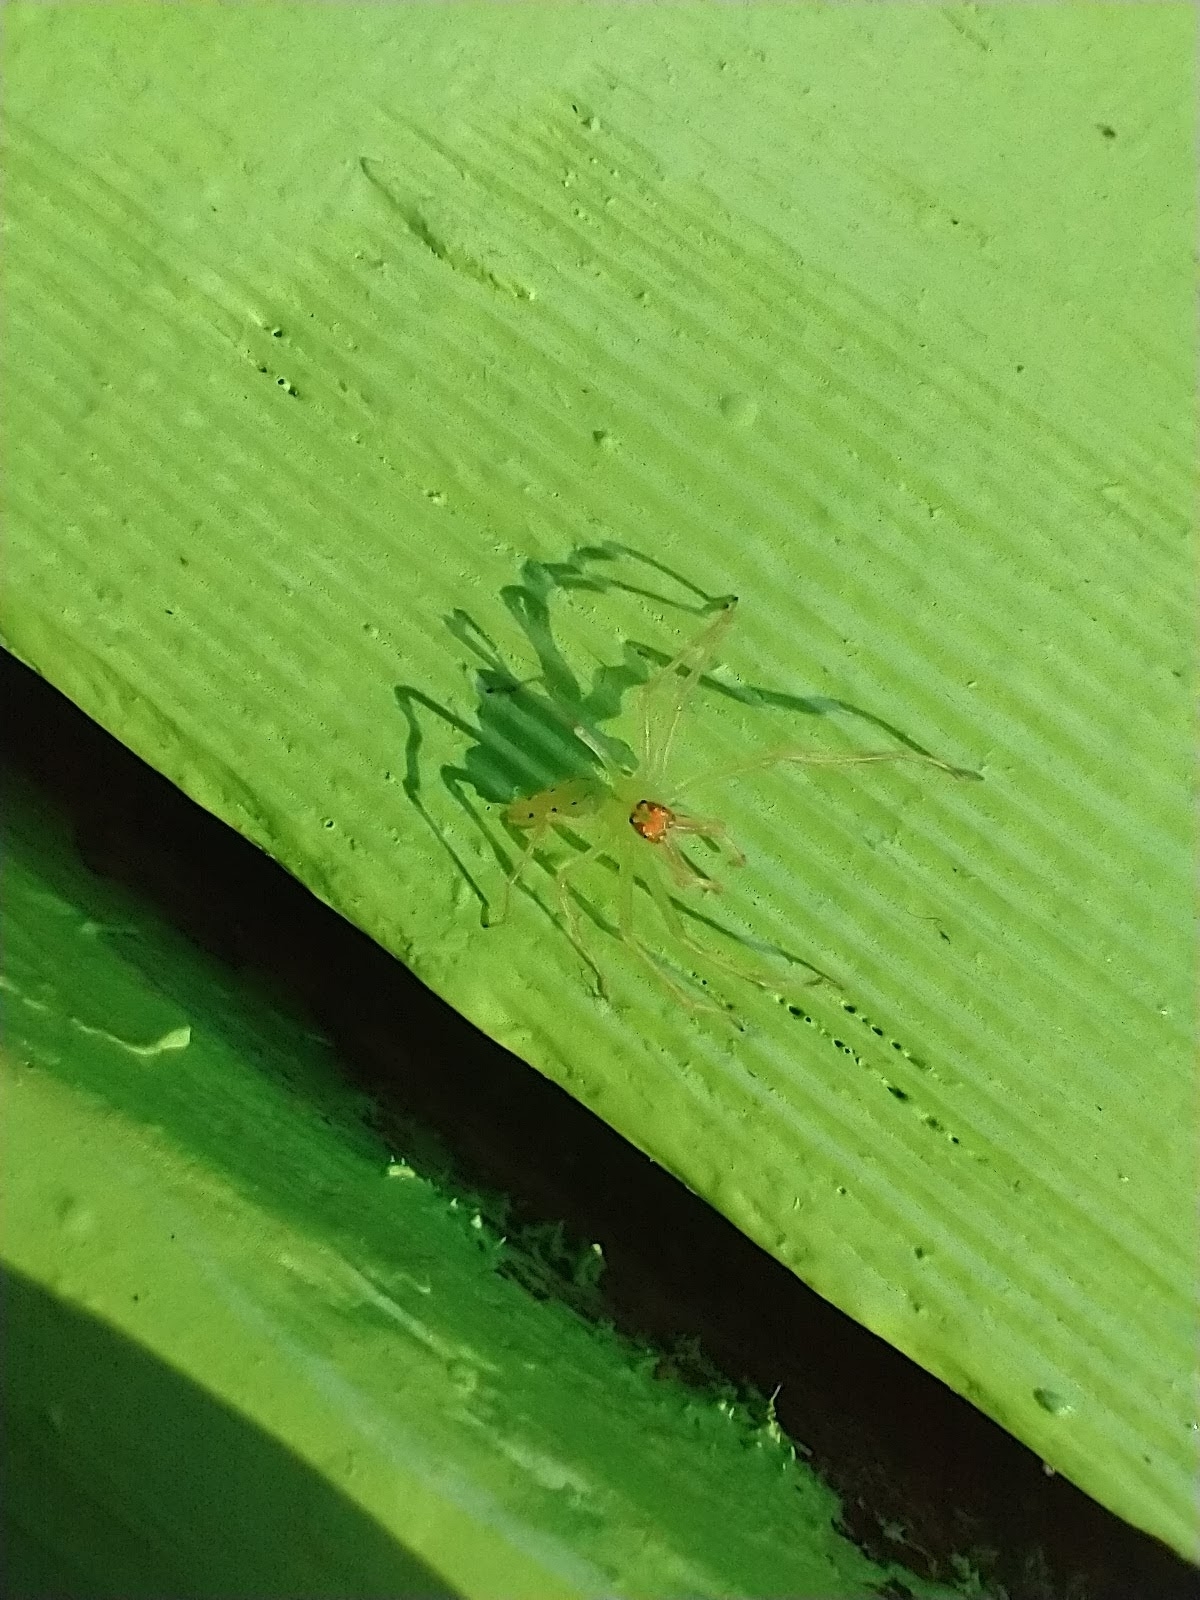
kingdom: Animalia
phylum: Arthropoda
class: Arachnida
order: Araneae
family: Salticidae
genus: Lyssomanes
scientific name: Lyssomanes viridis
